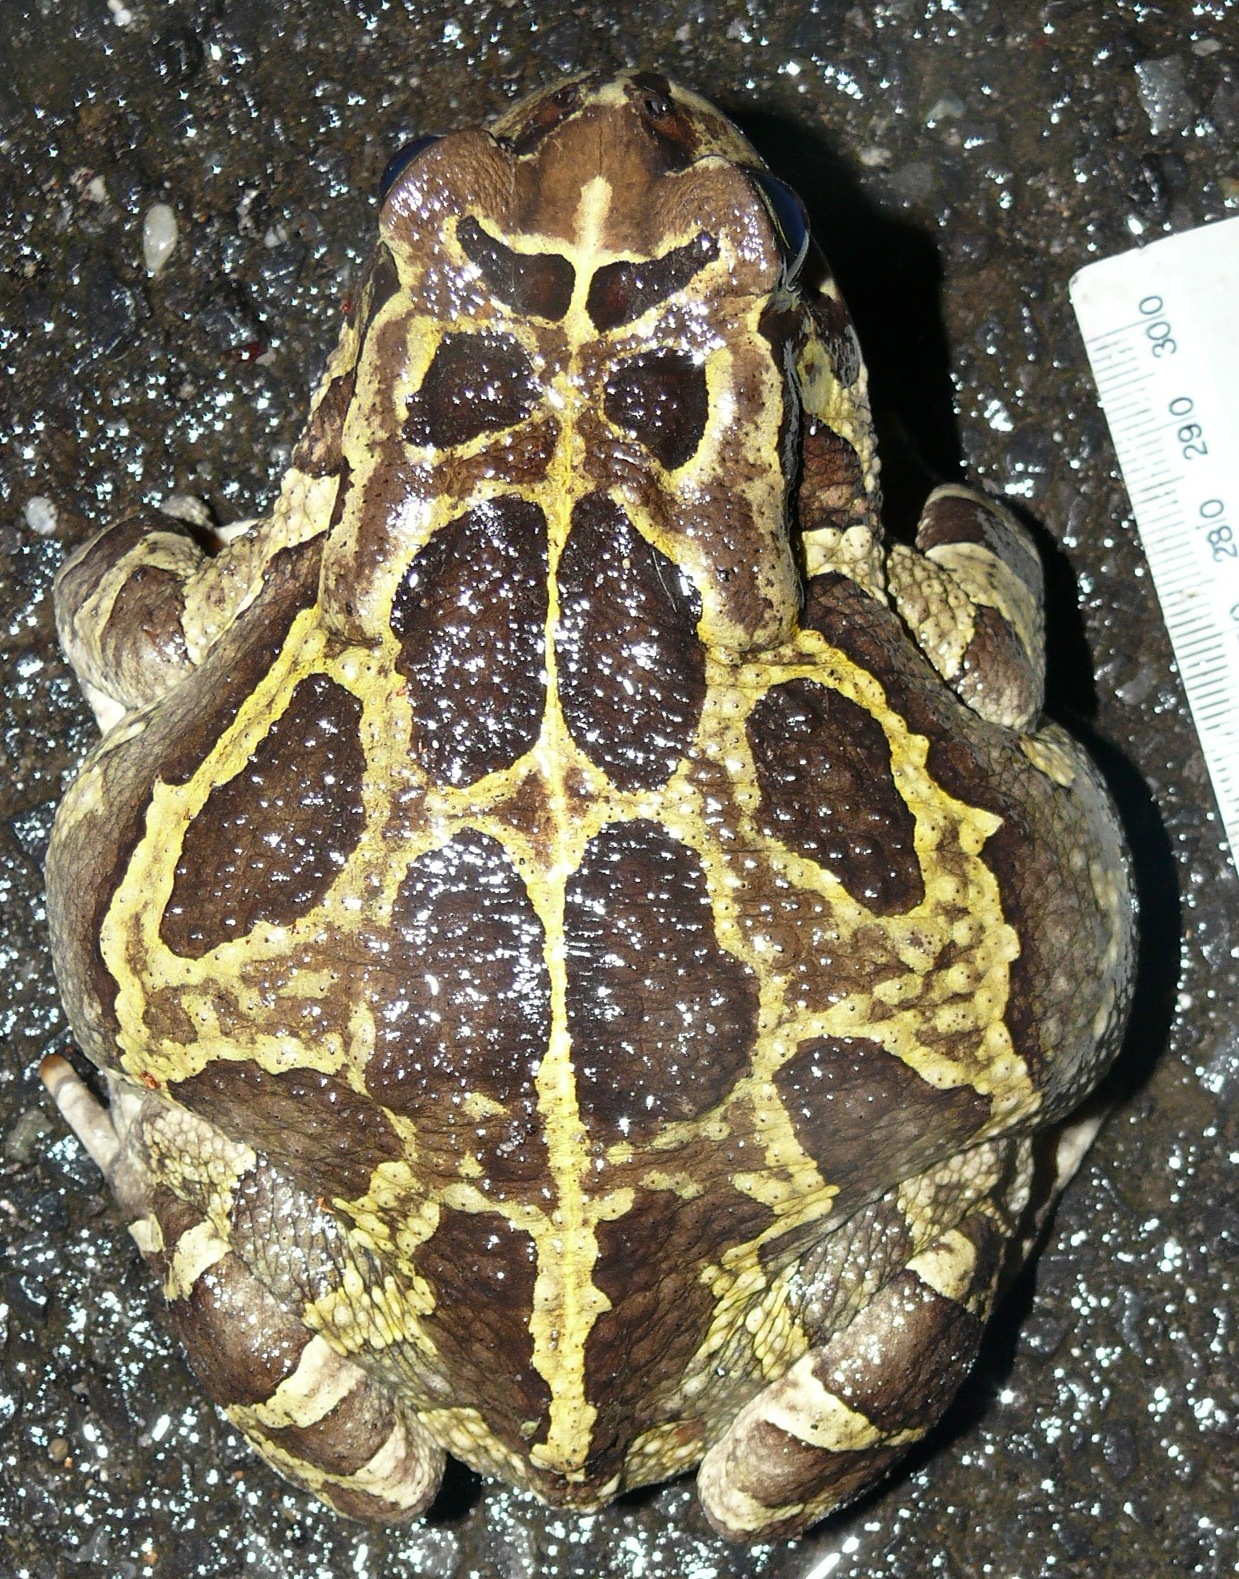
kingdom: Animalia
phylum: Chordata
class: Amphibia
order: Anura
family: Bufonidae
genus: Sclerophrys
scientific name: Sclerophrys pantherina
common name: Panther toad
